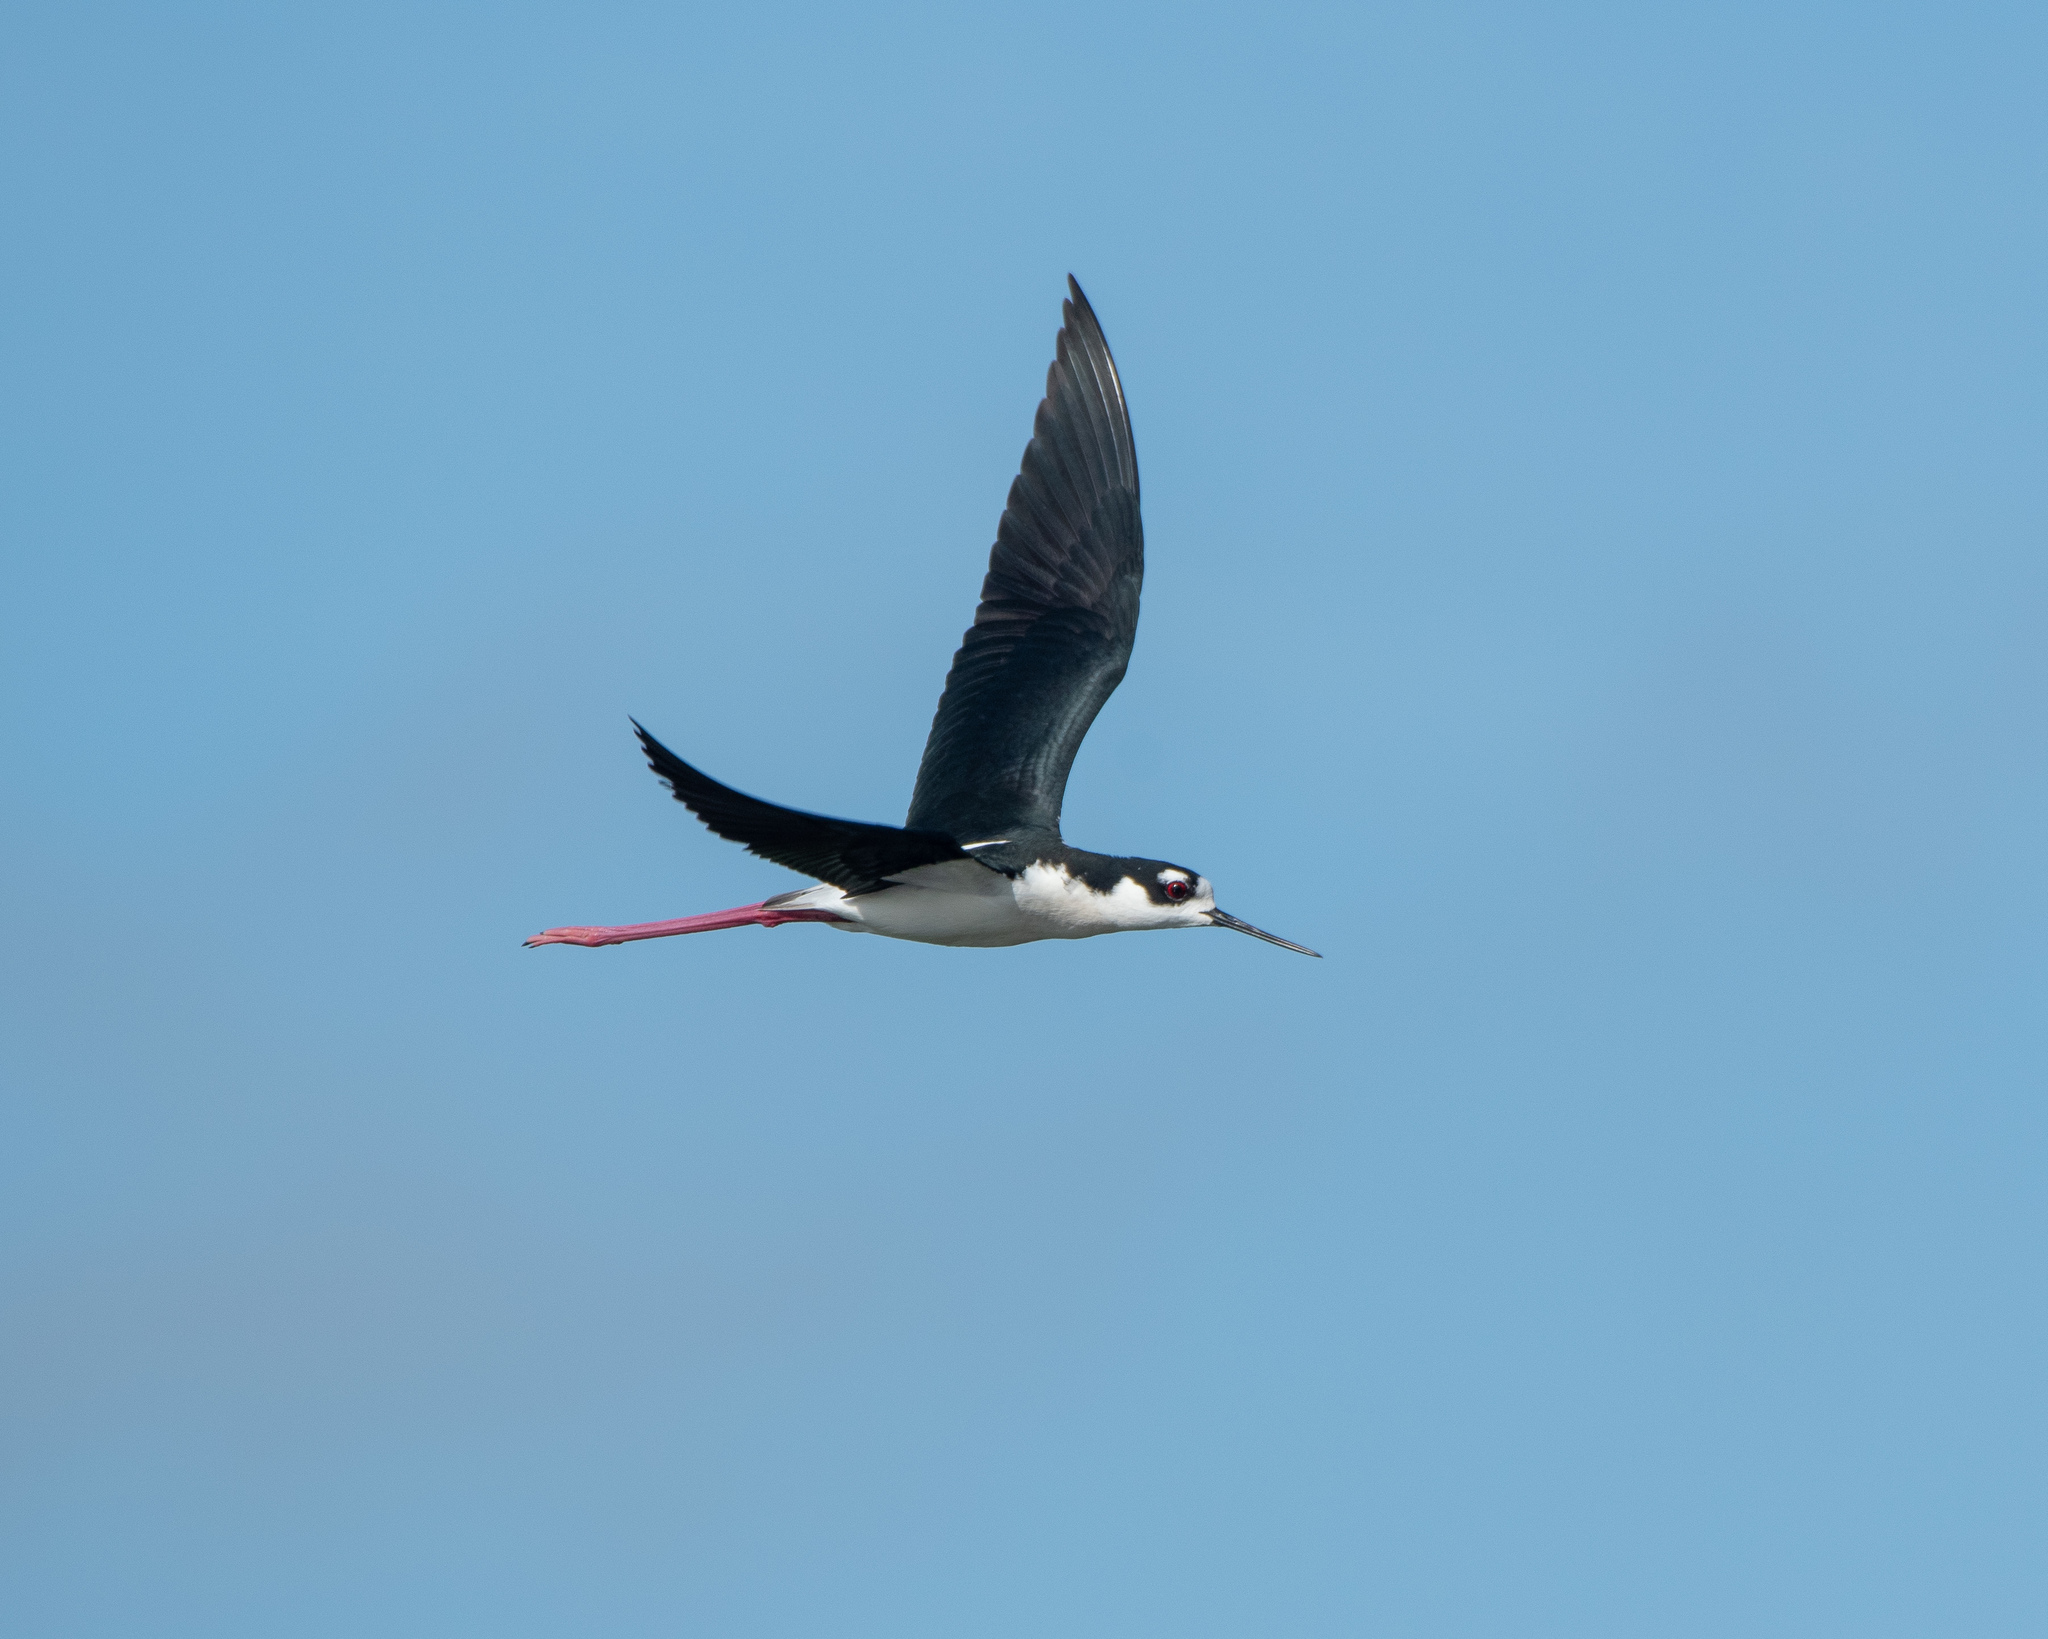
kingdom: Animalia
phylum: Chordata
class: Aves
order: Charadriiformes
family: Recurvirostridae
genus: Himantopus
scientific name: Himantopus mexicanus
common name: Black-necked stilt
